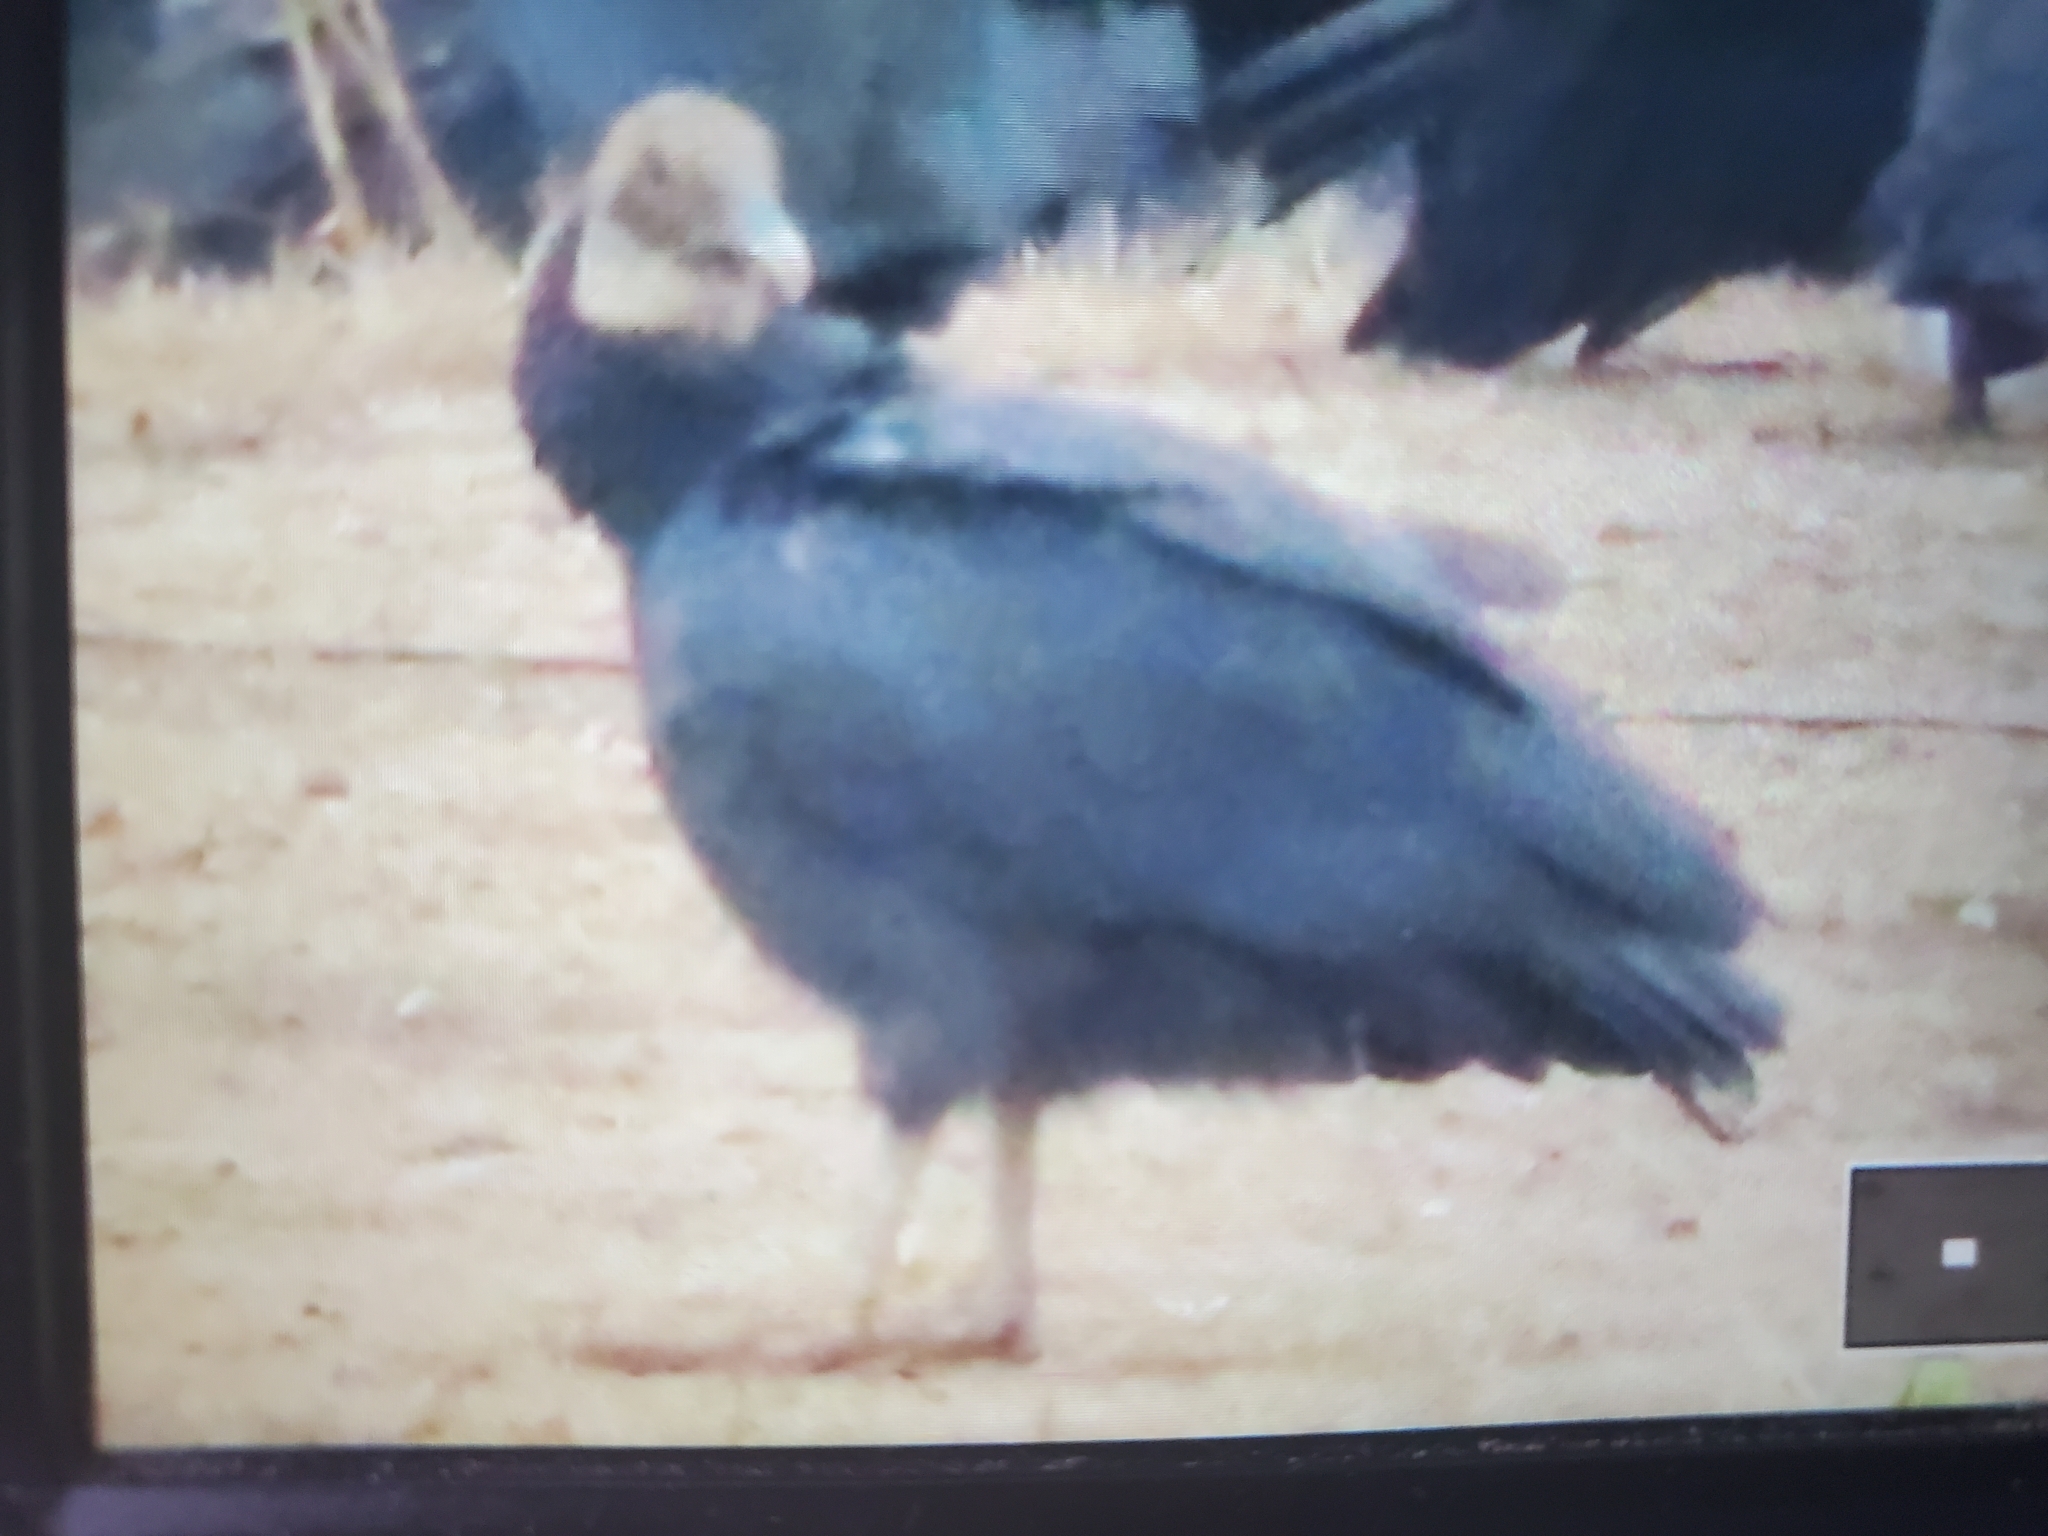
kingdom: Animalia
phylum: Chordata
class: Aves
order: Accipitriformes
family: Cathartidae
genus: Coragyps
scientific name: Coragyps atratus
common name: Black vulture
